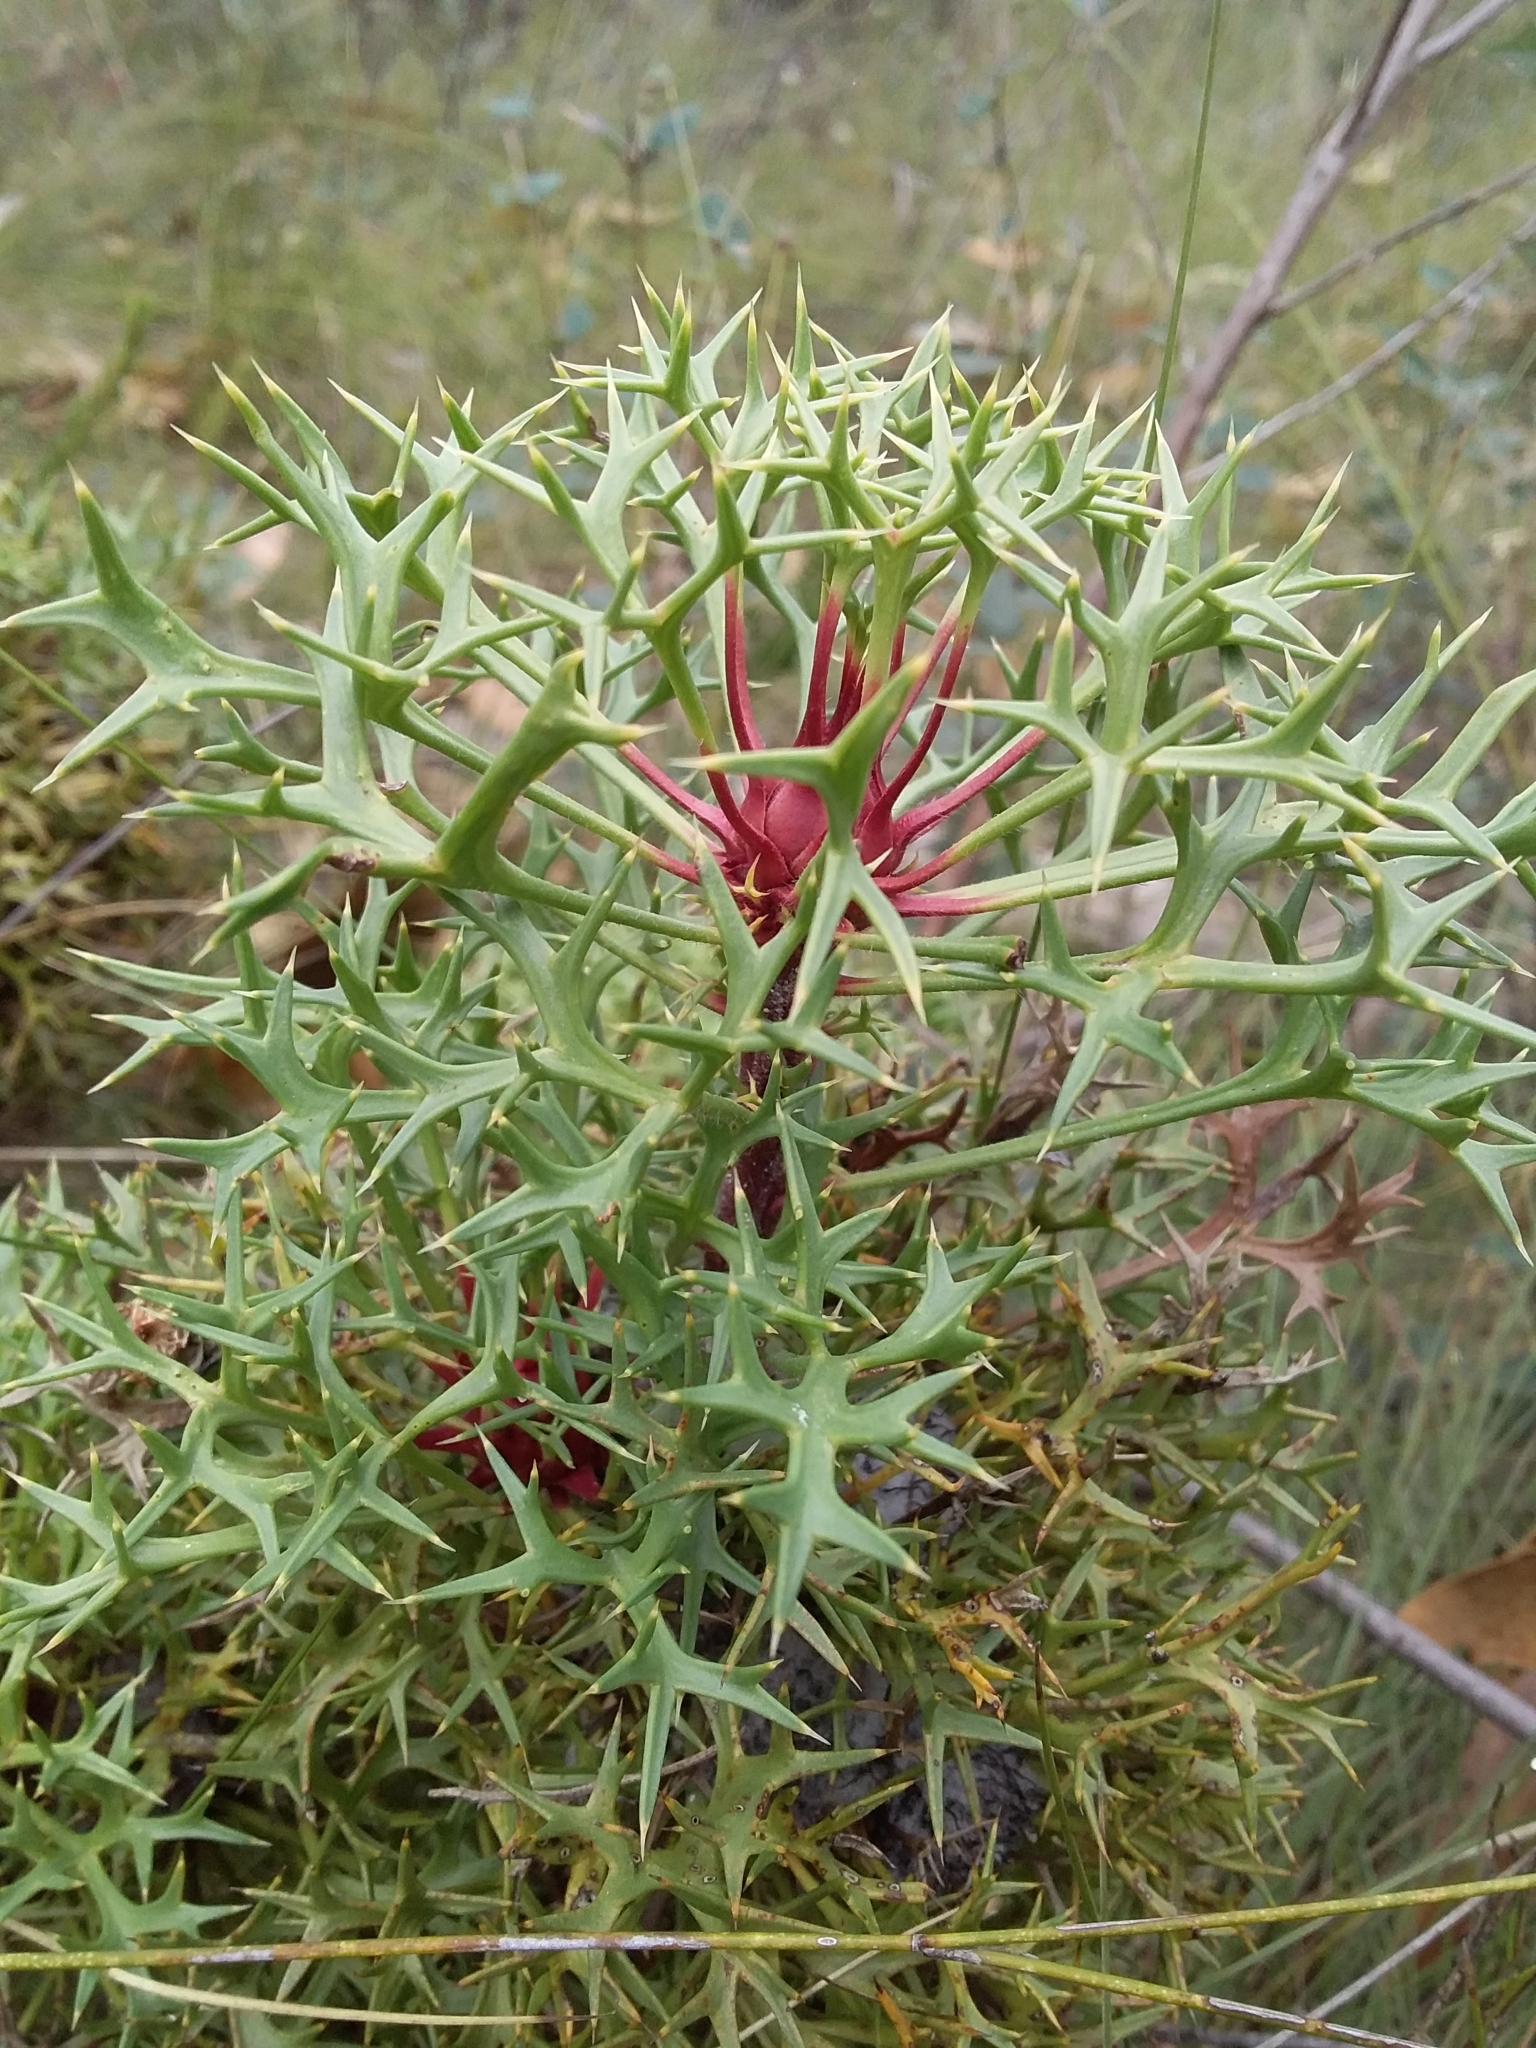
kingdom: Plantae
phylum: Tracheophyta
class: Magnoliopsida
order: Proteales
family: Proteaceae
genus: Isopogon
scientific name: Isopogon ceratophyllus
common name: Horny cone-bush
